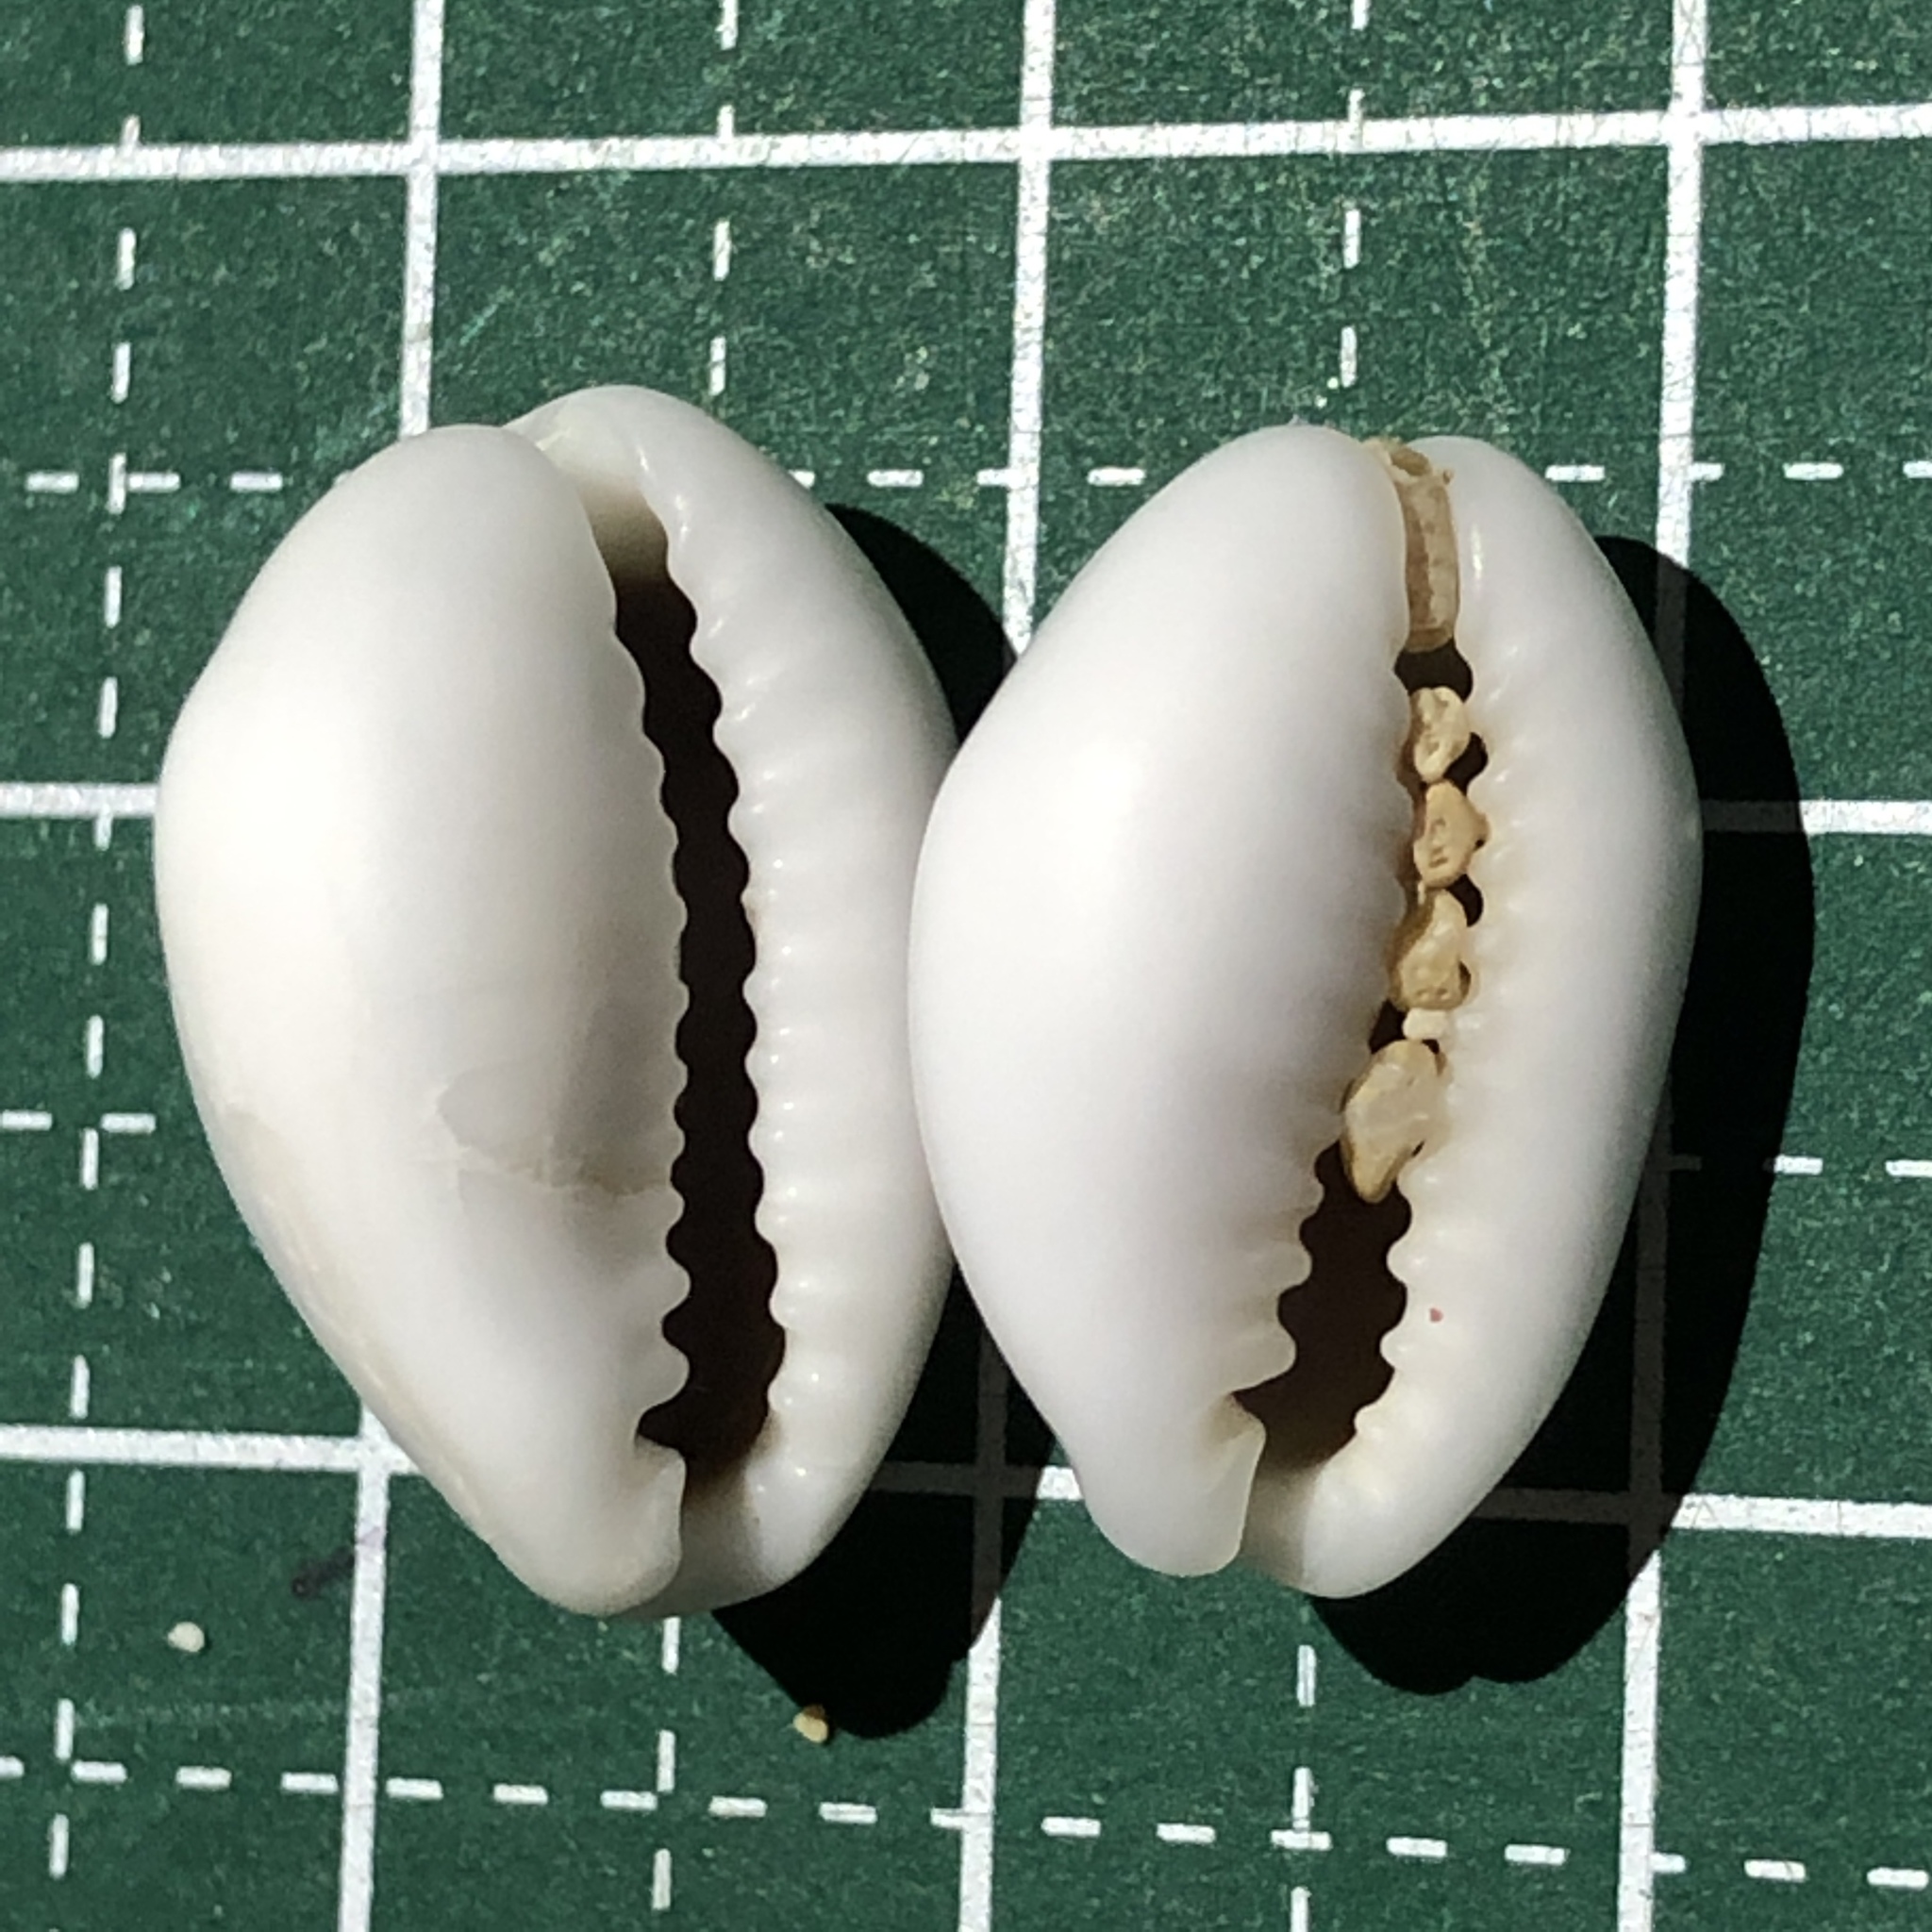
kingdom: Animalia
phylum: Mollusca
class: Gastropoda
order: Littorinimorpha
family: Cypraeidae
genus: Monetaria
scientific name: Monetaria moneta
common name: Money cowrie
